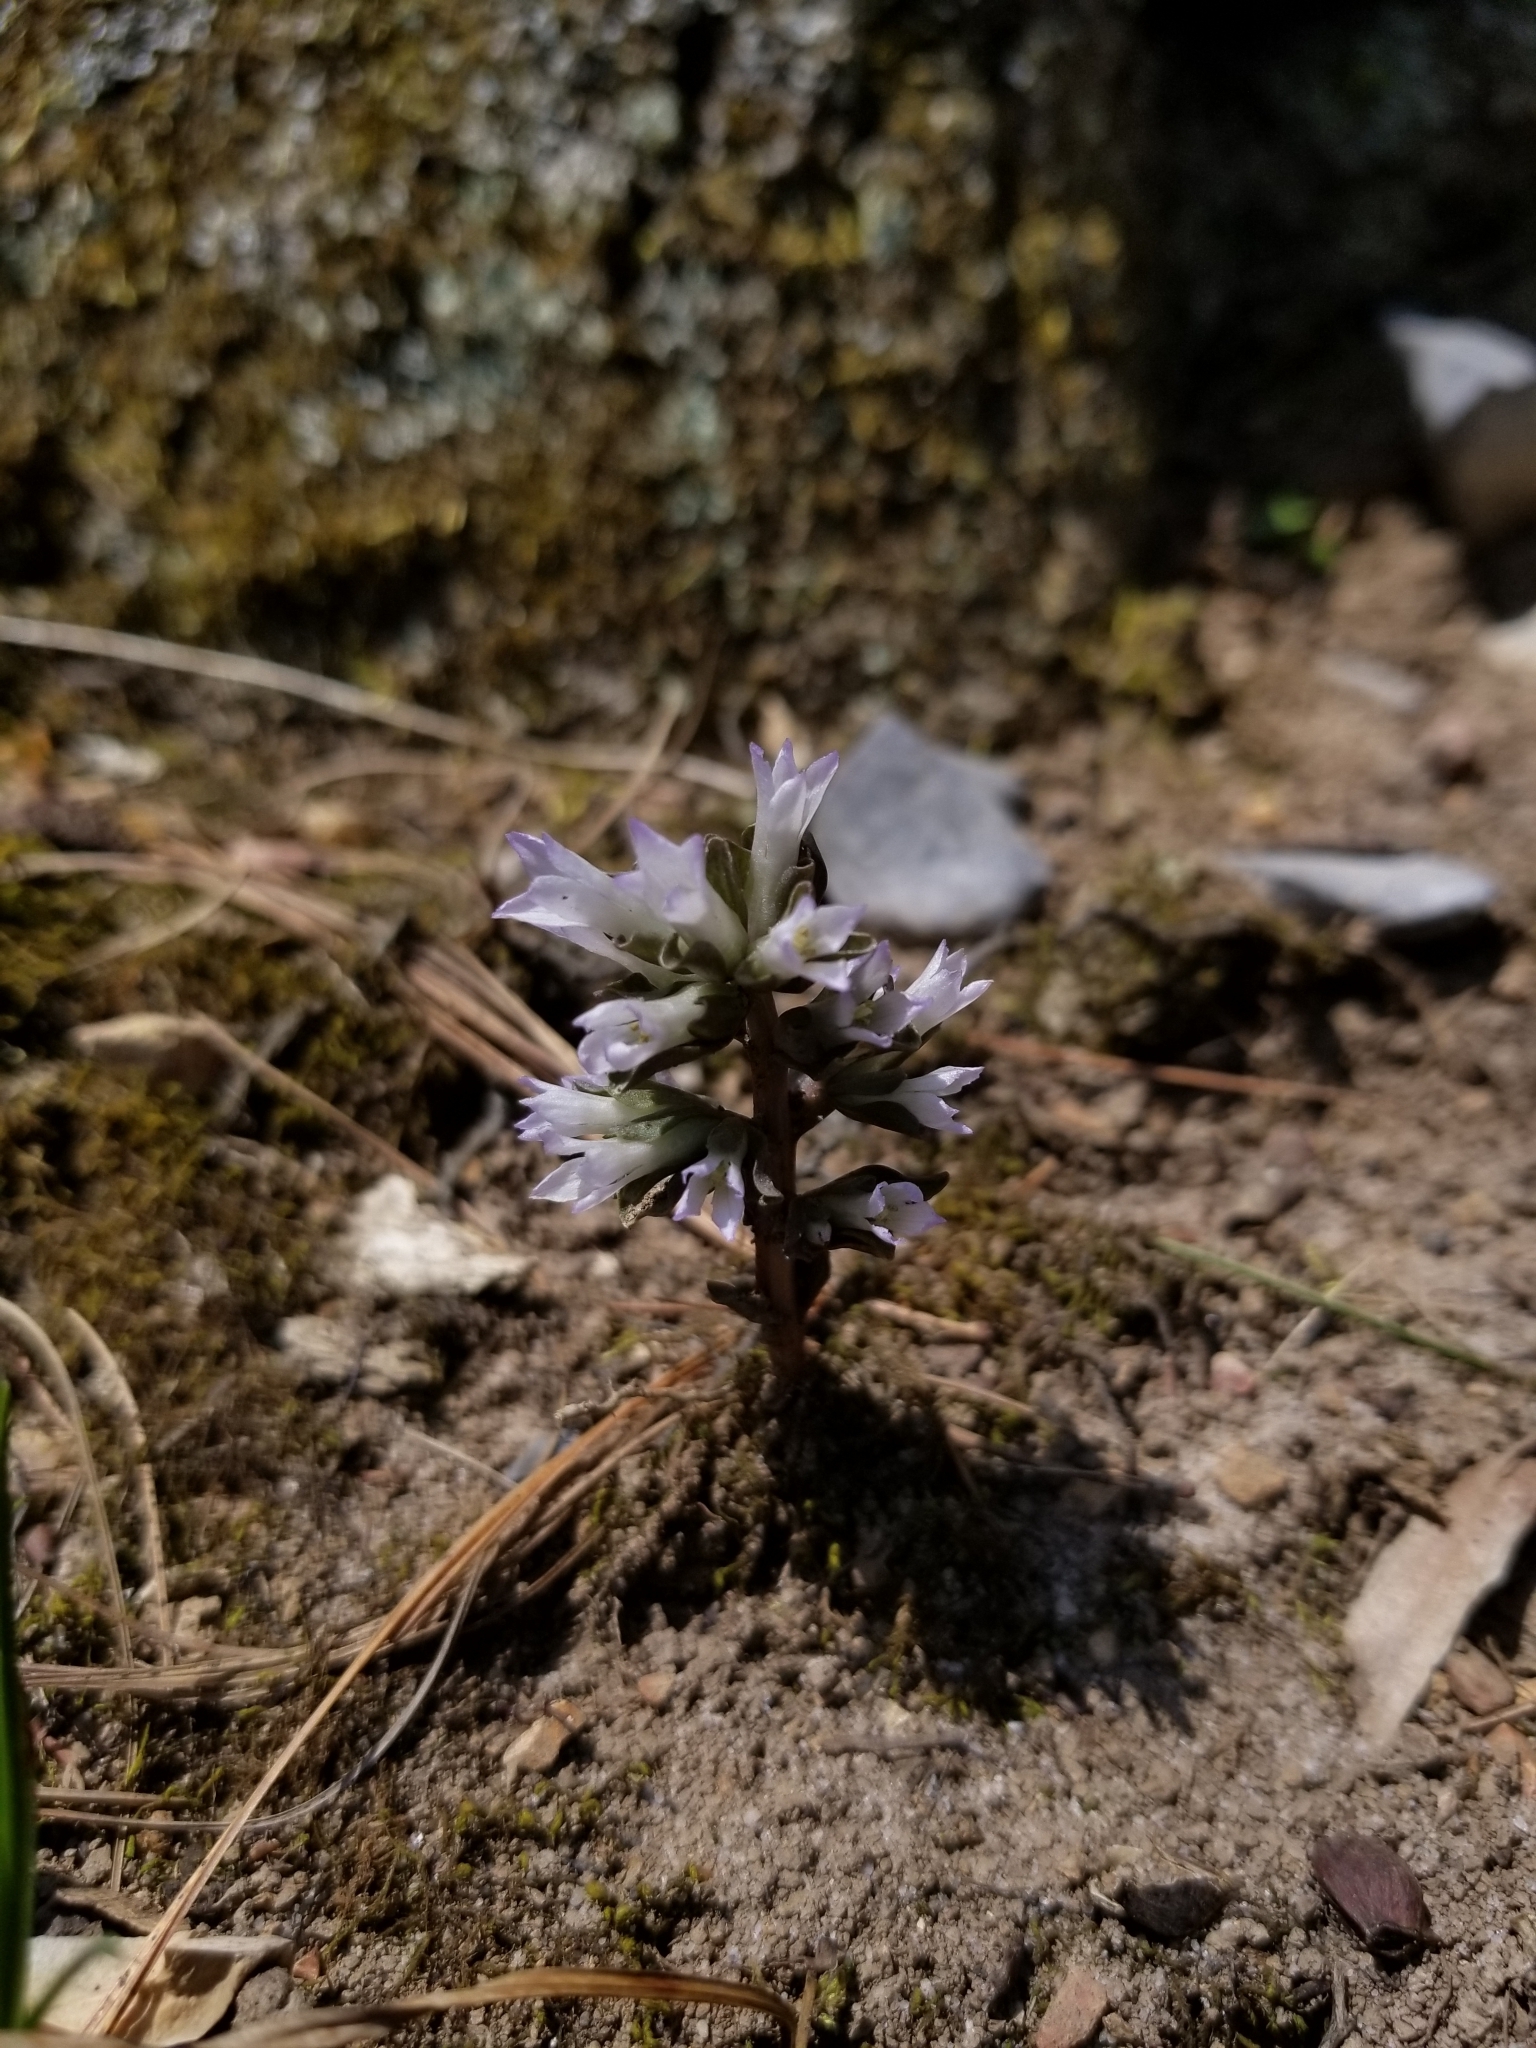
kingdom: Plantae
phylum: Tracheophyta
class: Magnoliopsida
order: Gentianales
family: Gentianaceae
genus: Obolaria
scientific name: Obolaria virginica
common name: Pennywort
